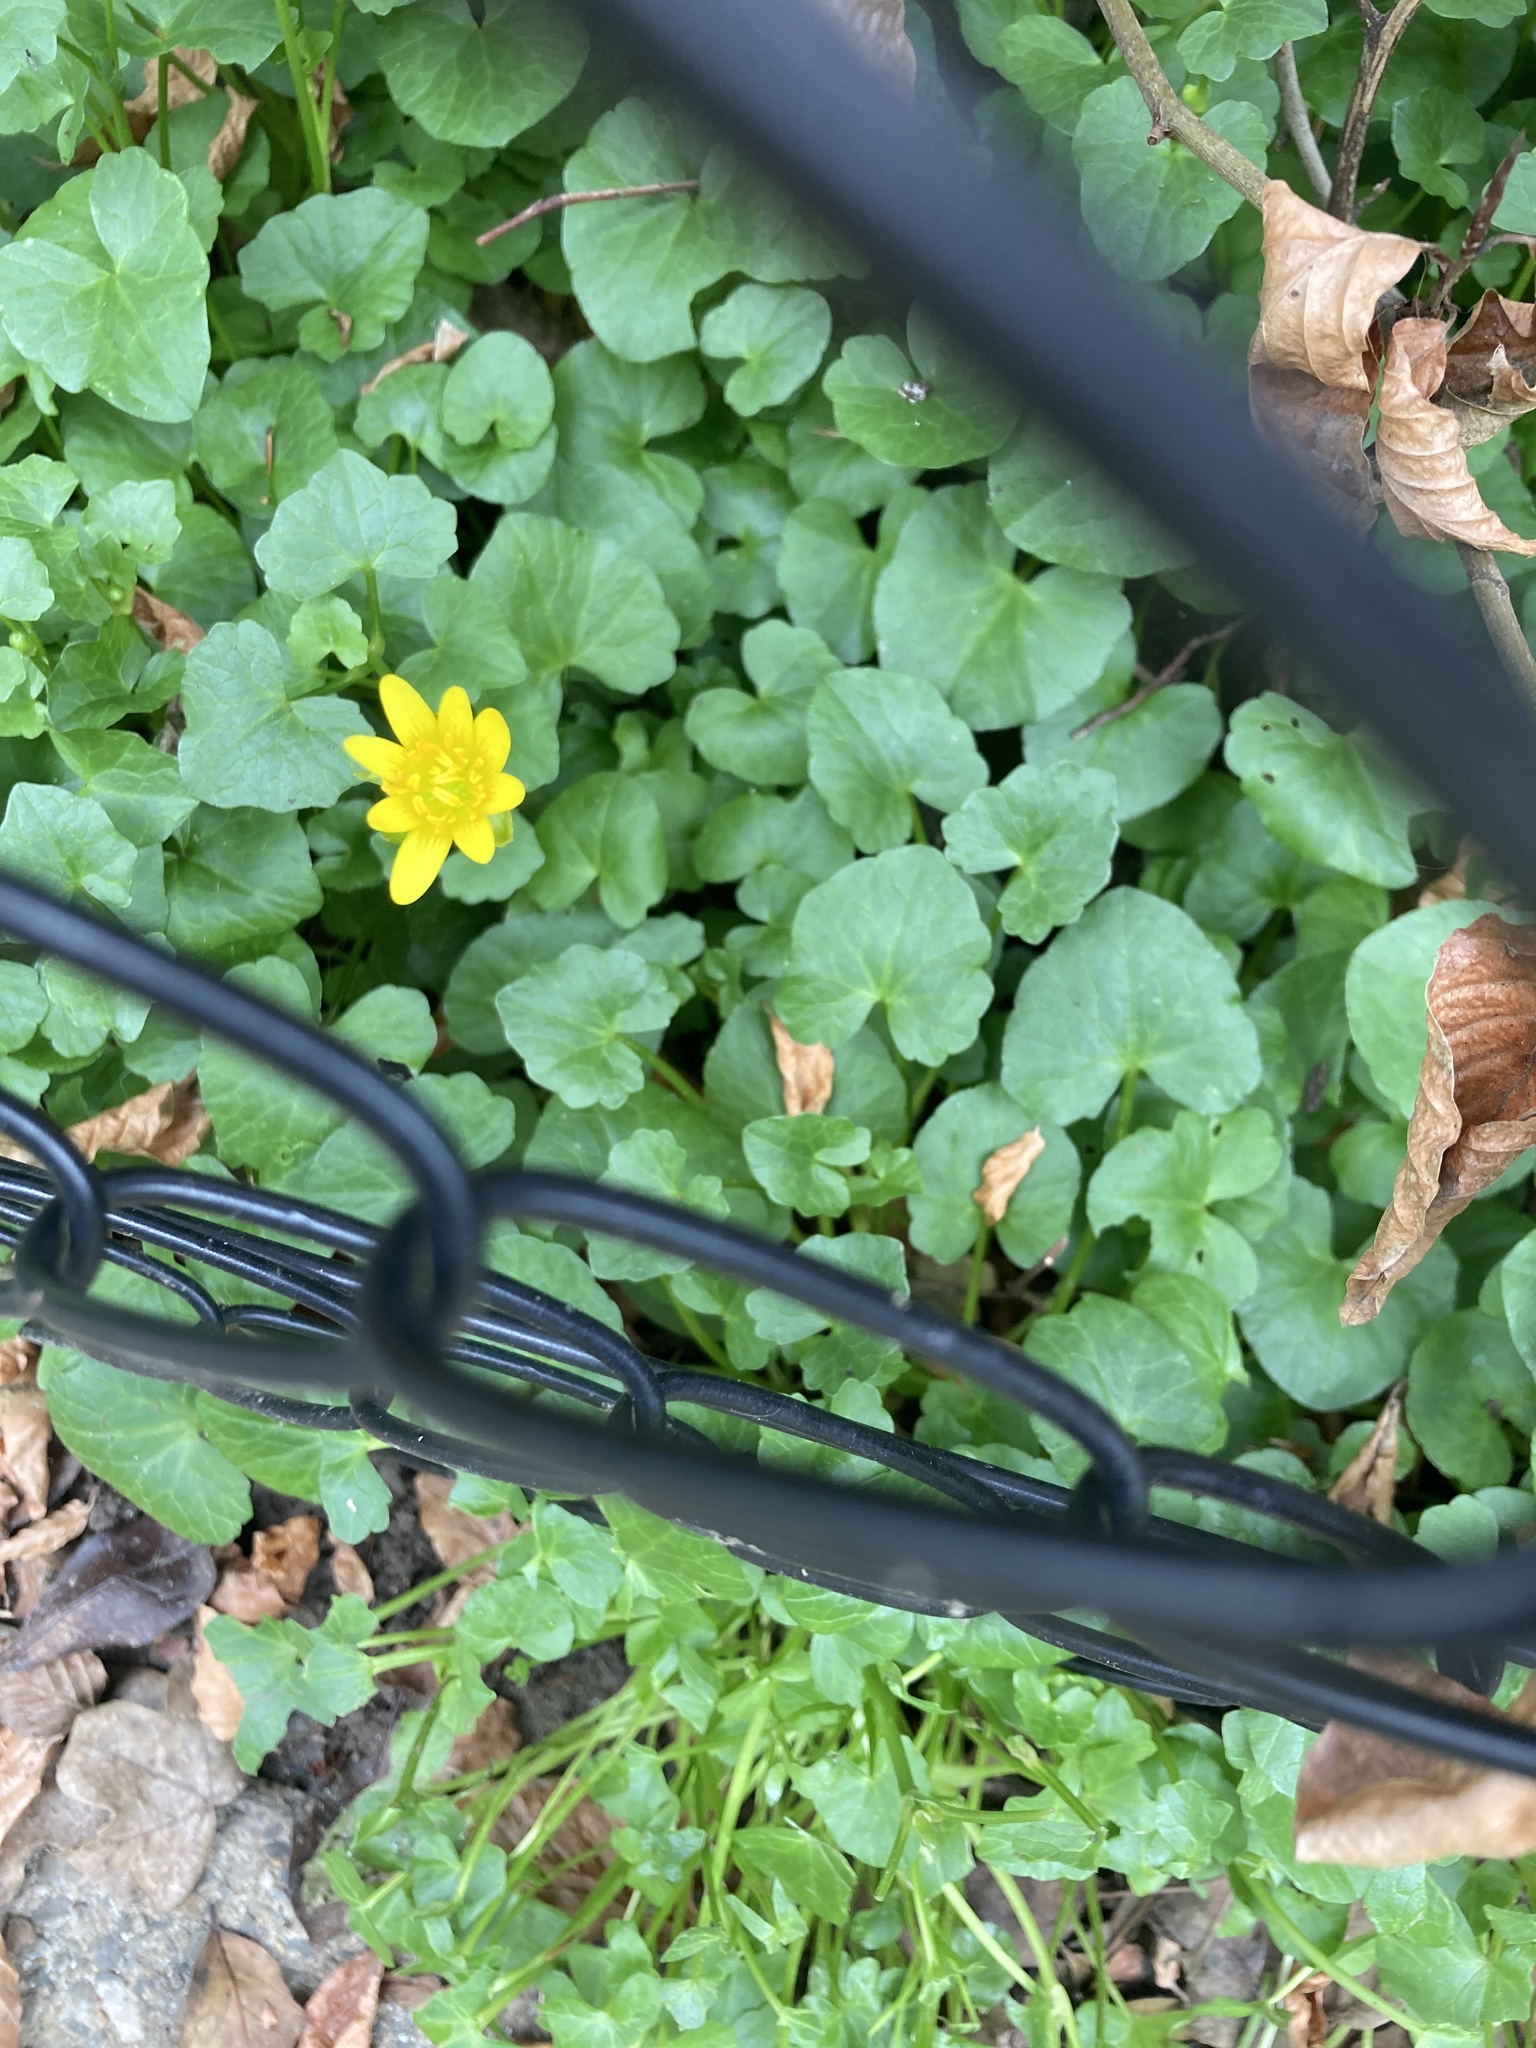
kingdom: Plantae
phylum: Tracheophyta
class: Magnoliopsida
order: Ranunculales
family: Ranunculaceae
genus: Ficaria
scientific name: Ficaria verna
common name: Lesser celandine
